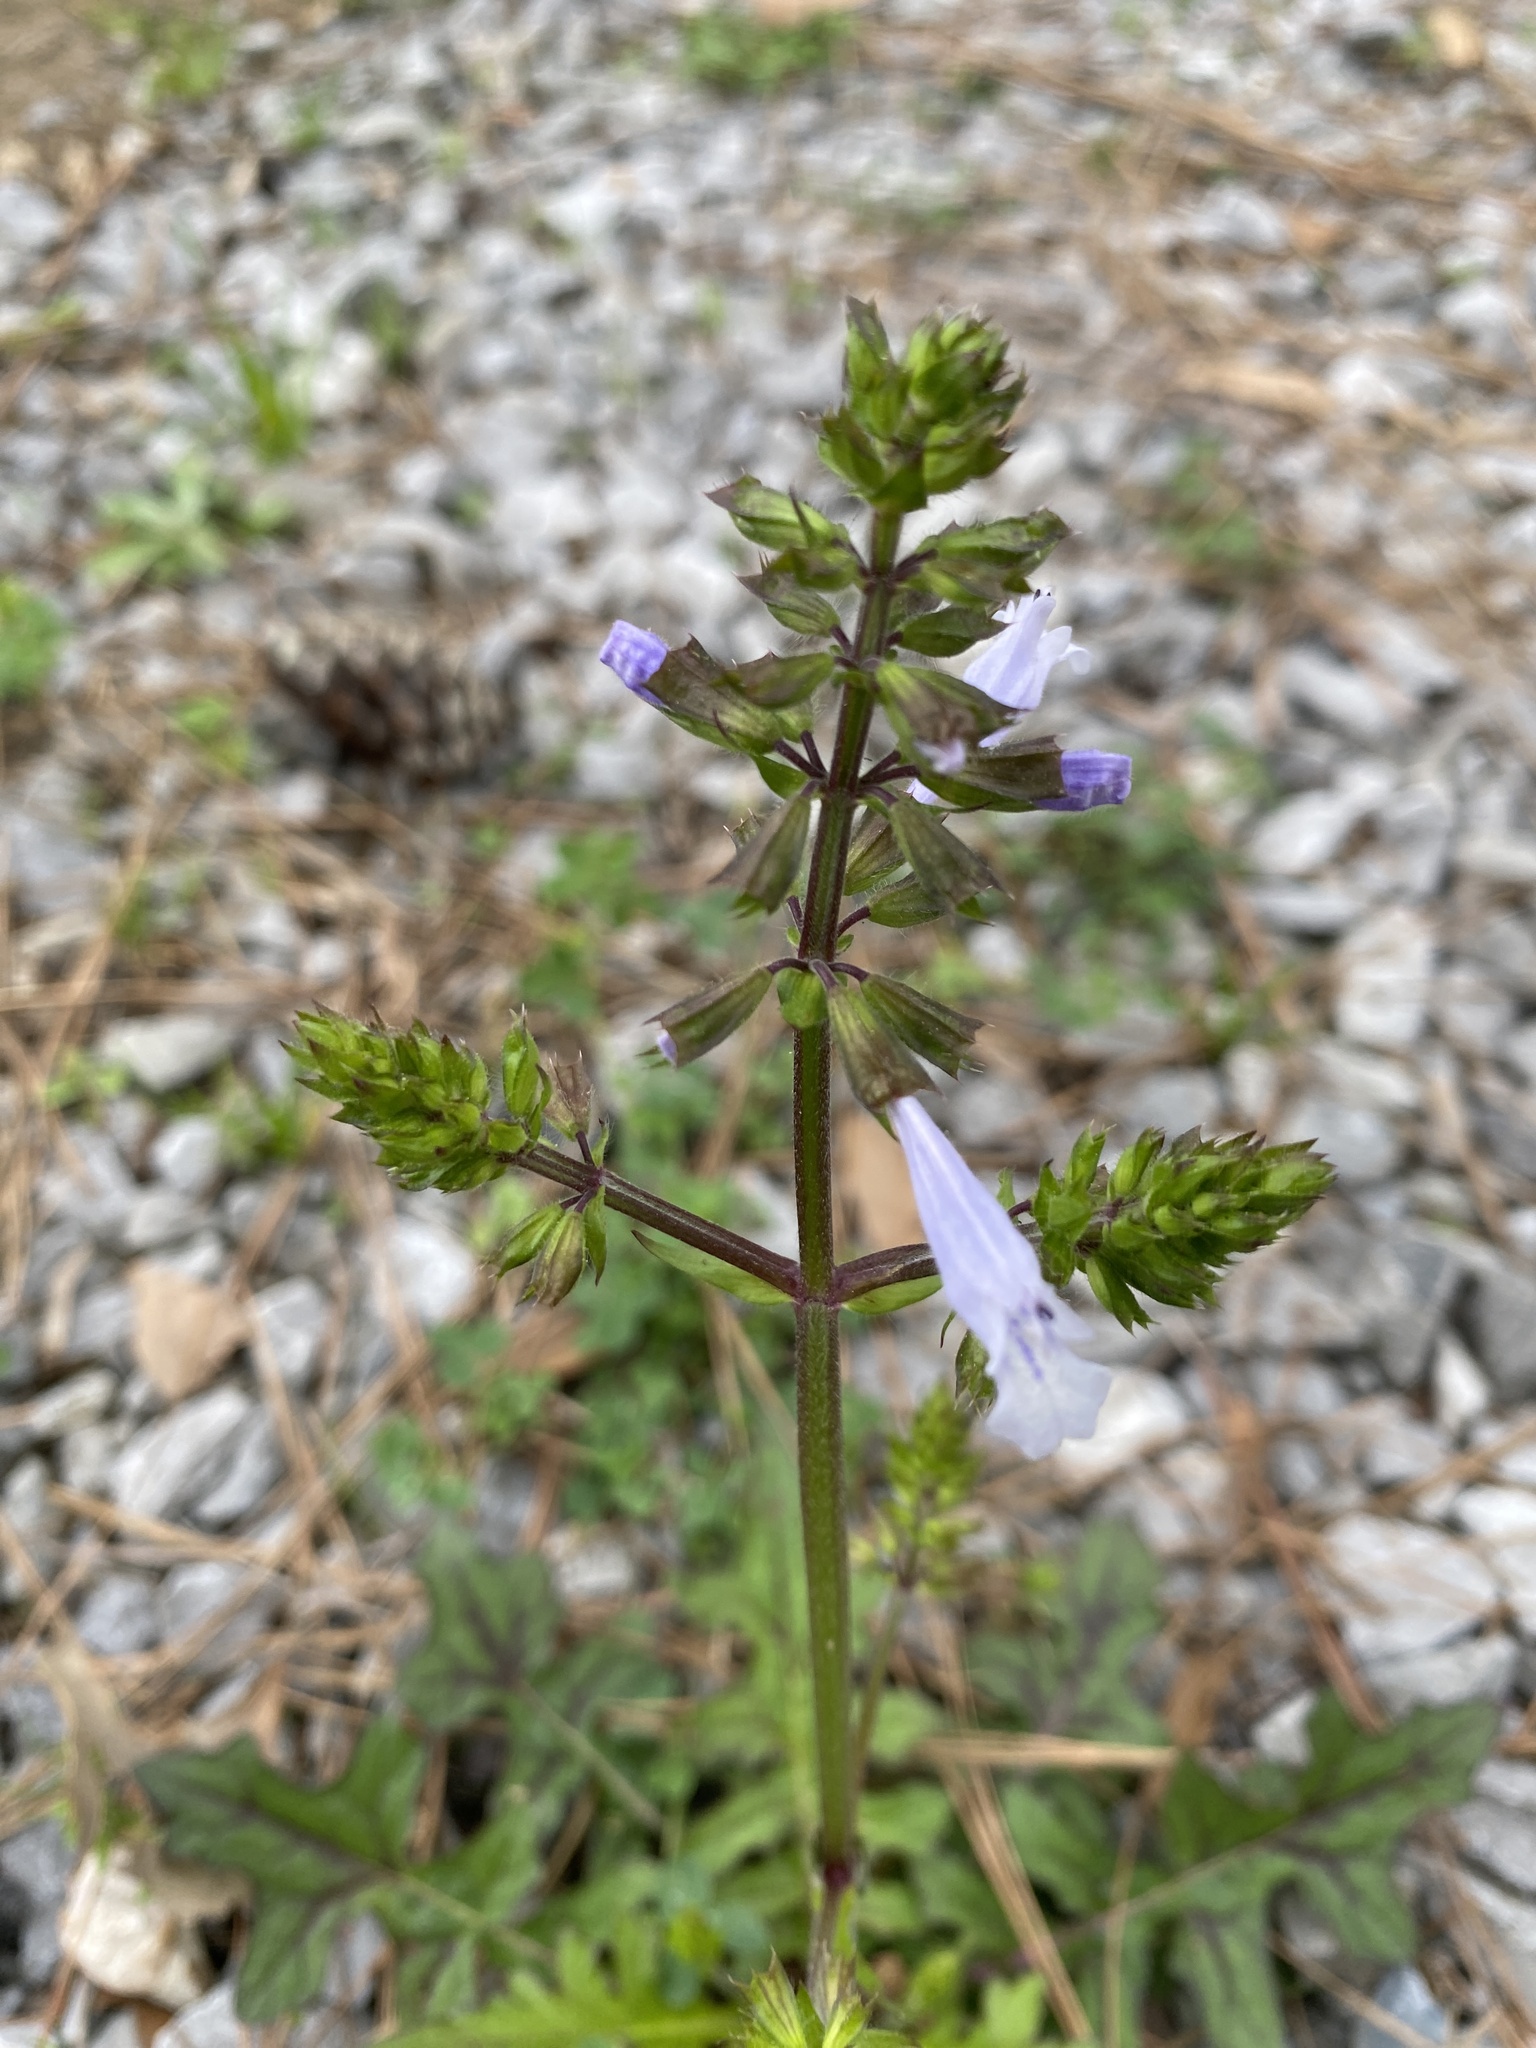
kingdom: Plantae
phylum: Tracheophyta
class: Magnoliopsida
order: Lamiales
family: Lamiaceae
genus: Salvia
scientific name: Salvia lyrata
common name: Cancerweed
